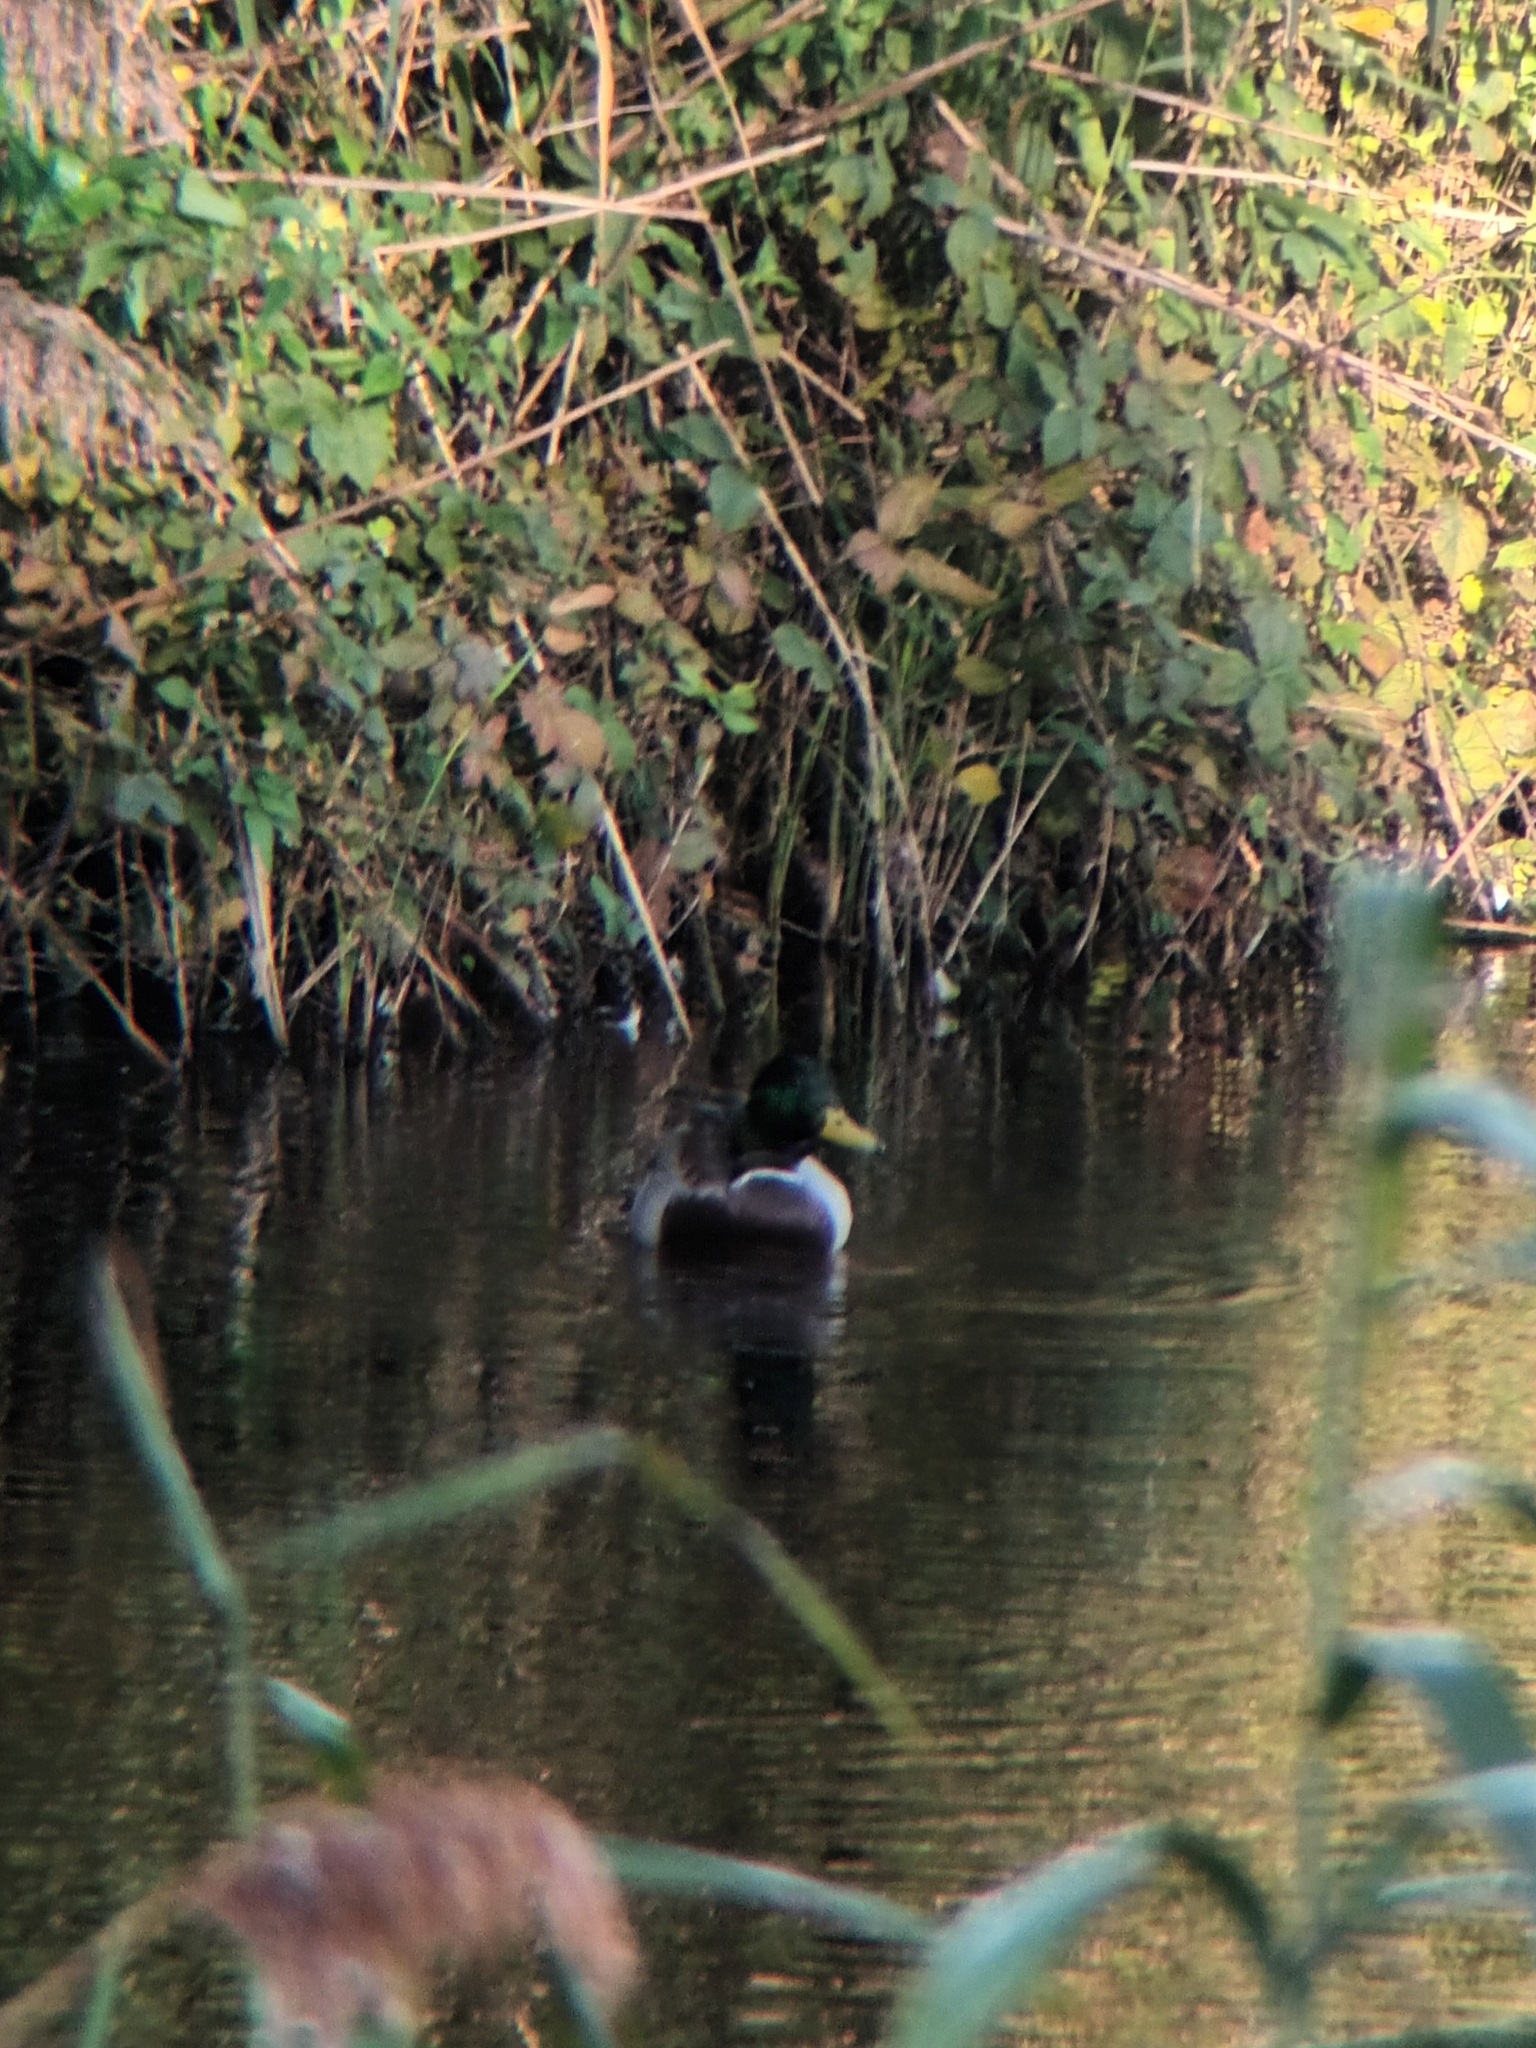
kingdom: Animalia
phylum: Chordata
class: Aves
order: Anseriformes
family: Anatidae
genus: Anas
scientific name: Anas platyrhynchos
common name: Mallard
